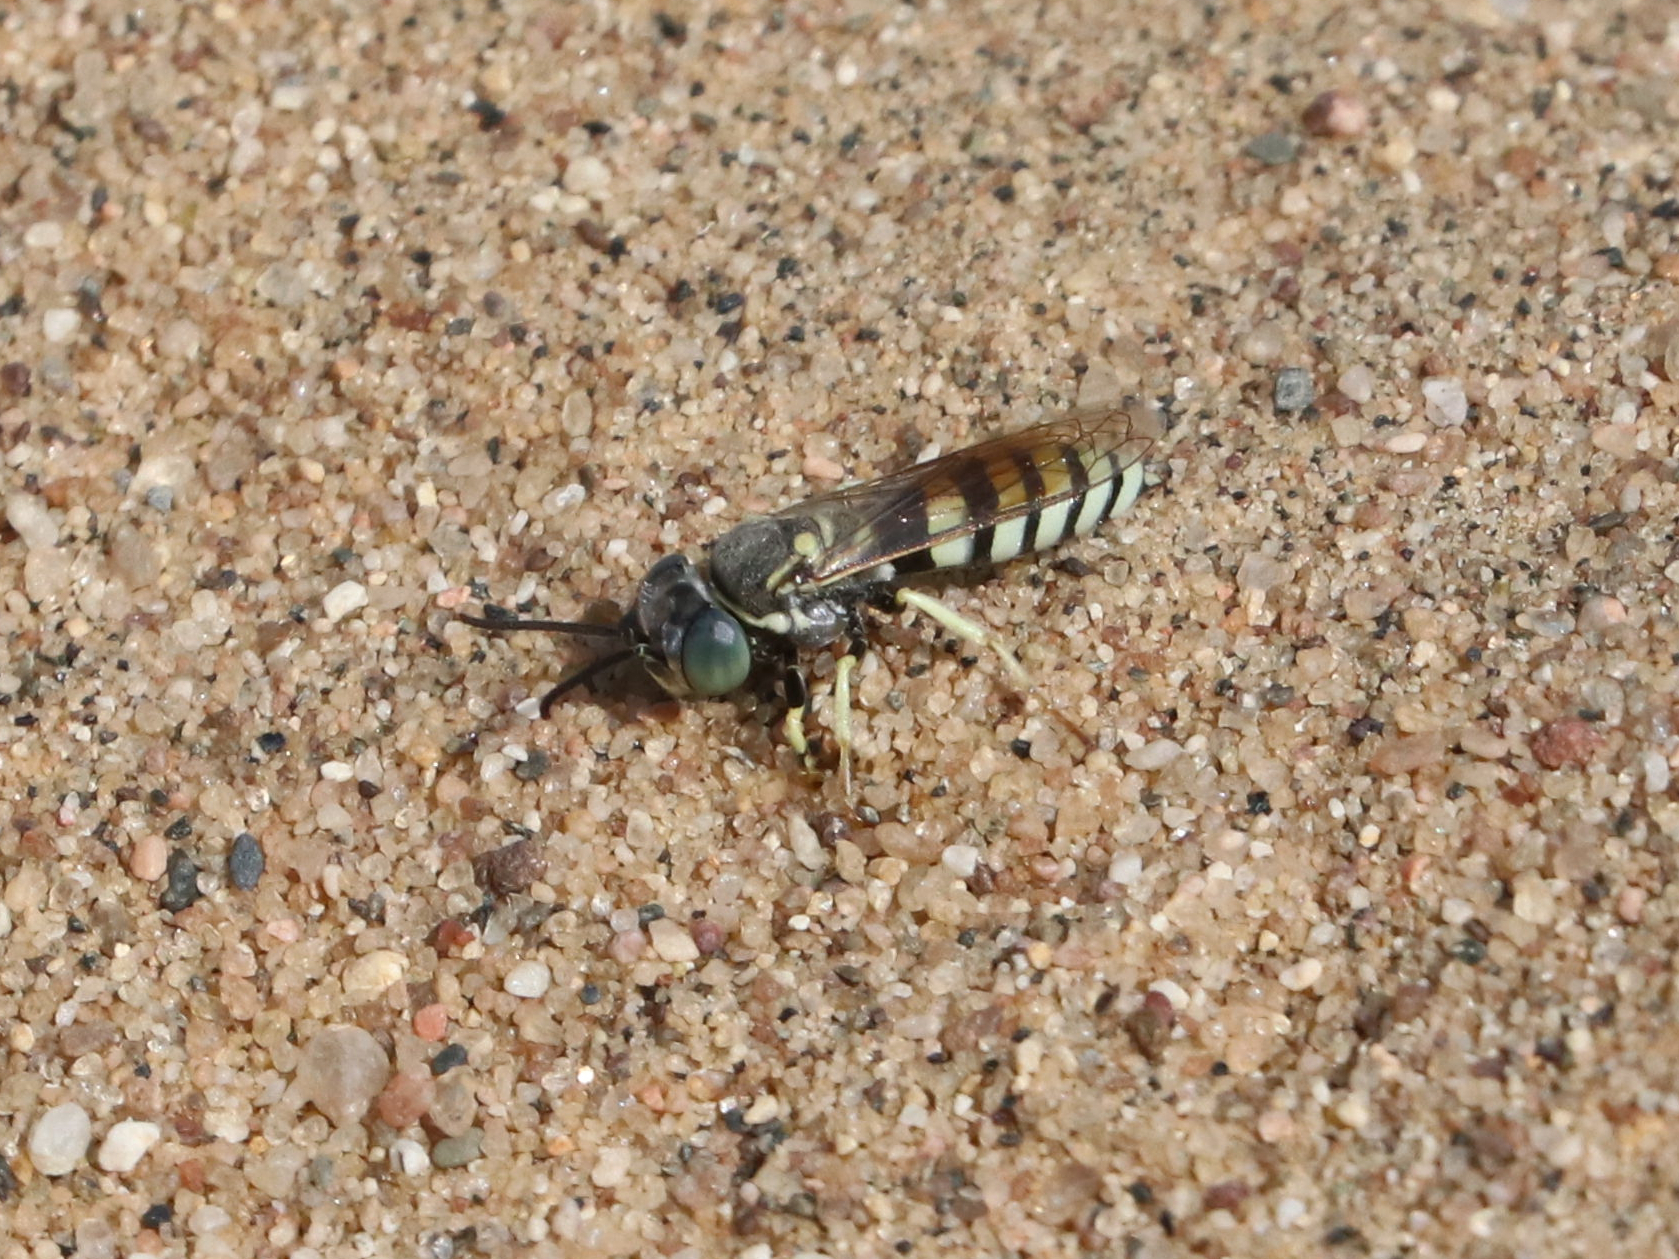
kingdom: Animalia
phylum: Arthropoda
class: Insecta
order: Hymenoptera
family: Crabronidae
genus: Microbembex
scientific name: Microbembex monodonta
